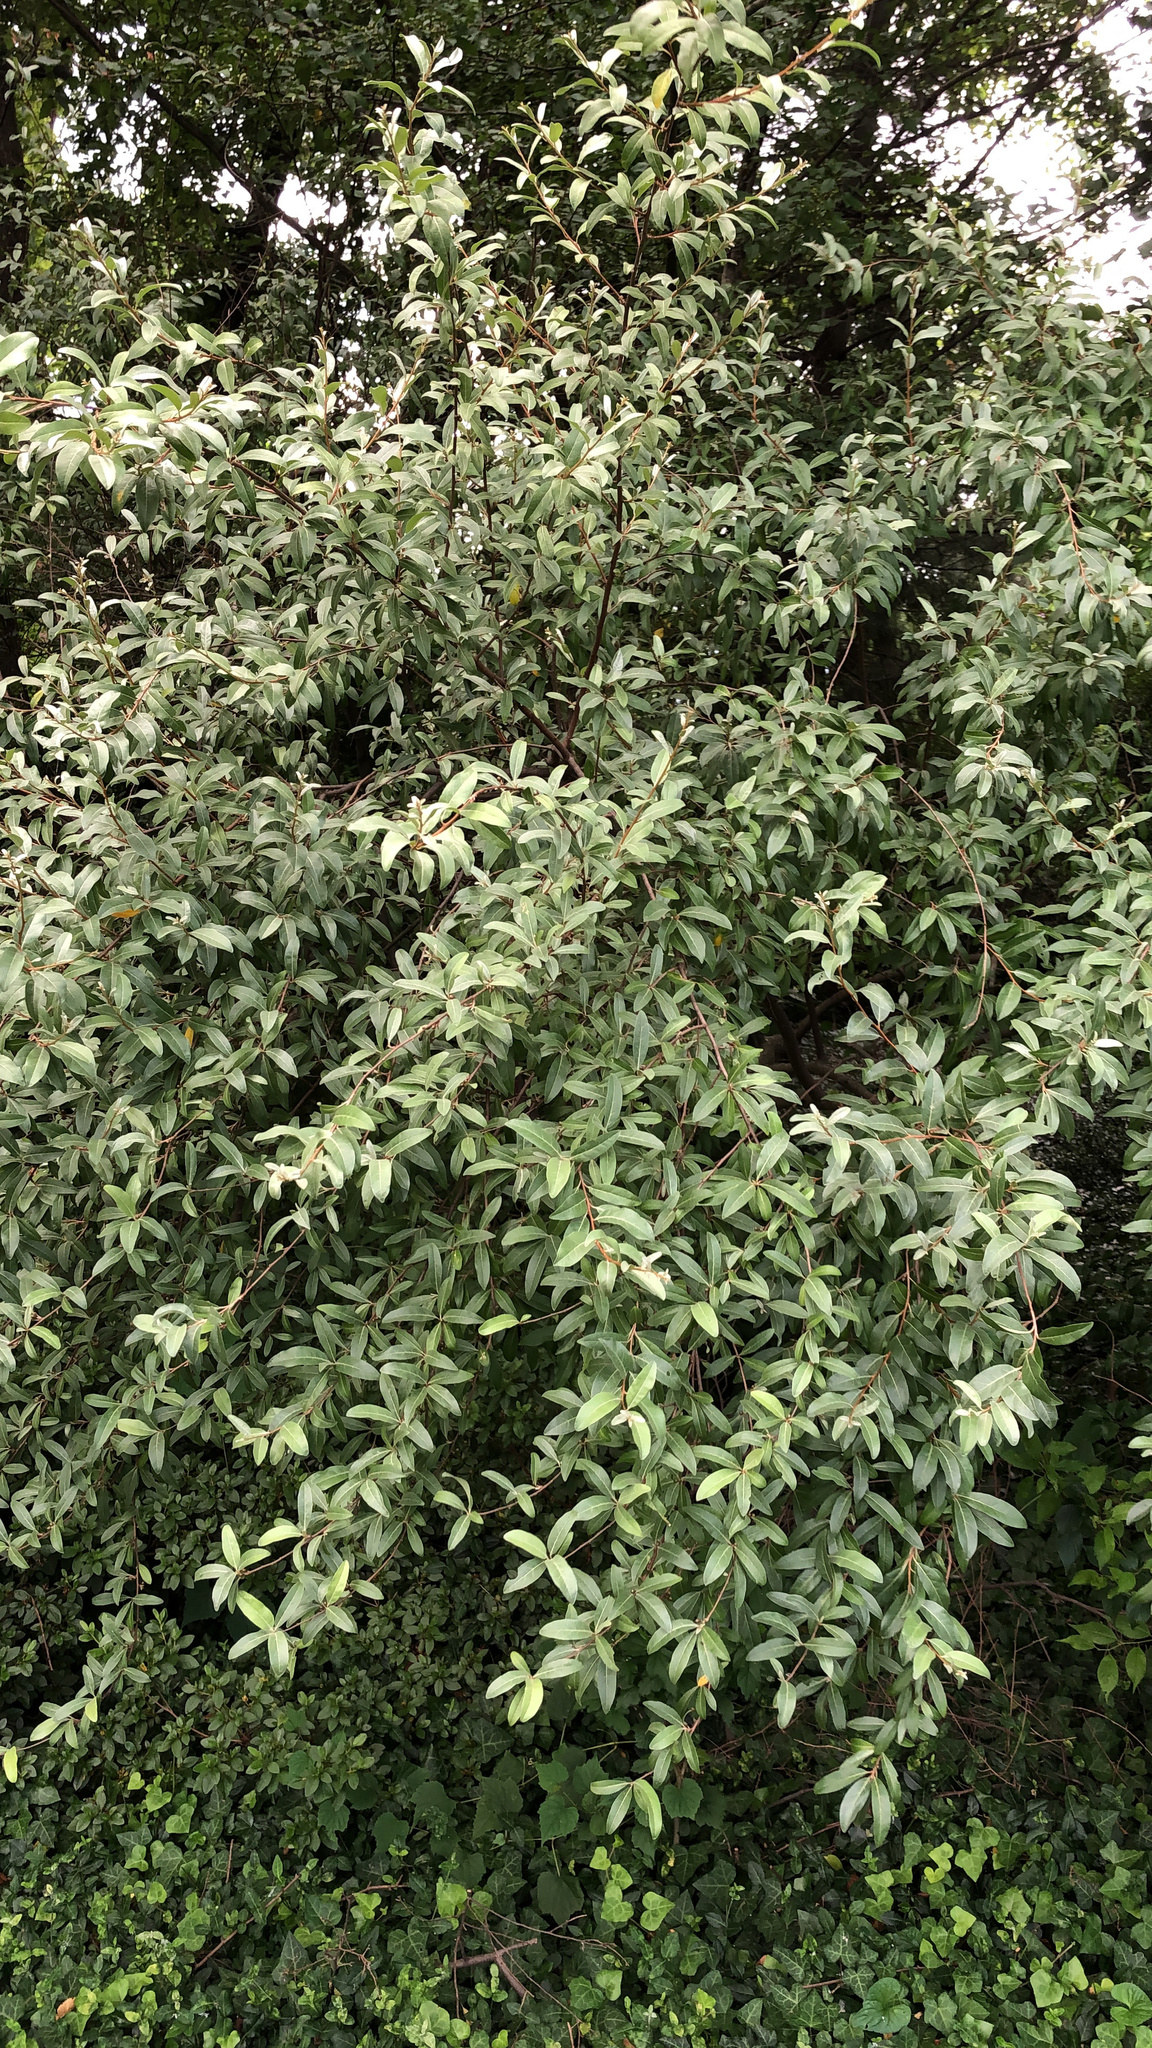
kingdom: Plantae
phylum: Tracheophyta
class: Magnoliopsida
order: Rosales
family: Elaeagnaceae
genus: Elaeagnus
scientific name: Elaeagnus umbellata
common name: Autumn olive
